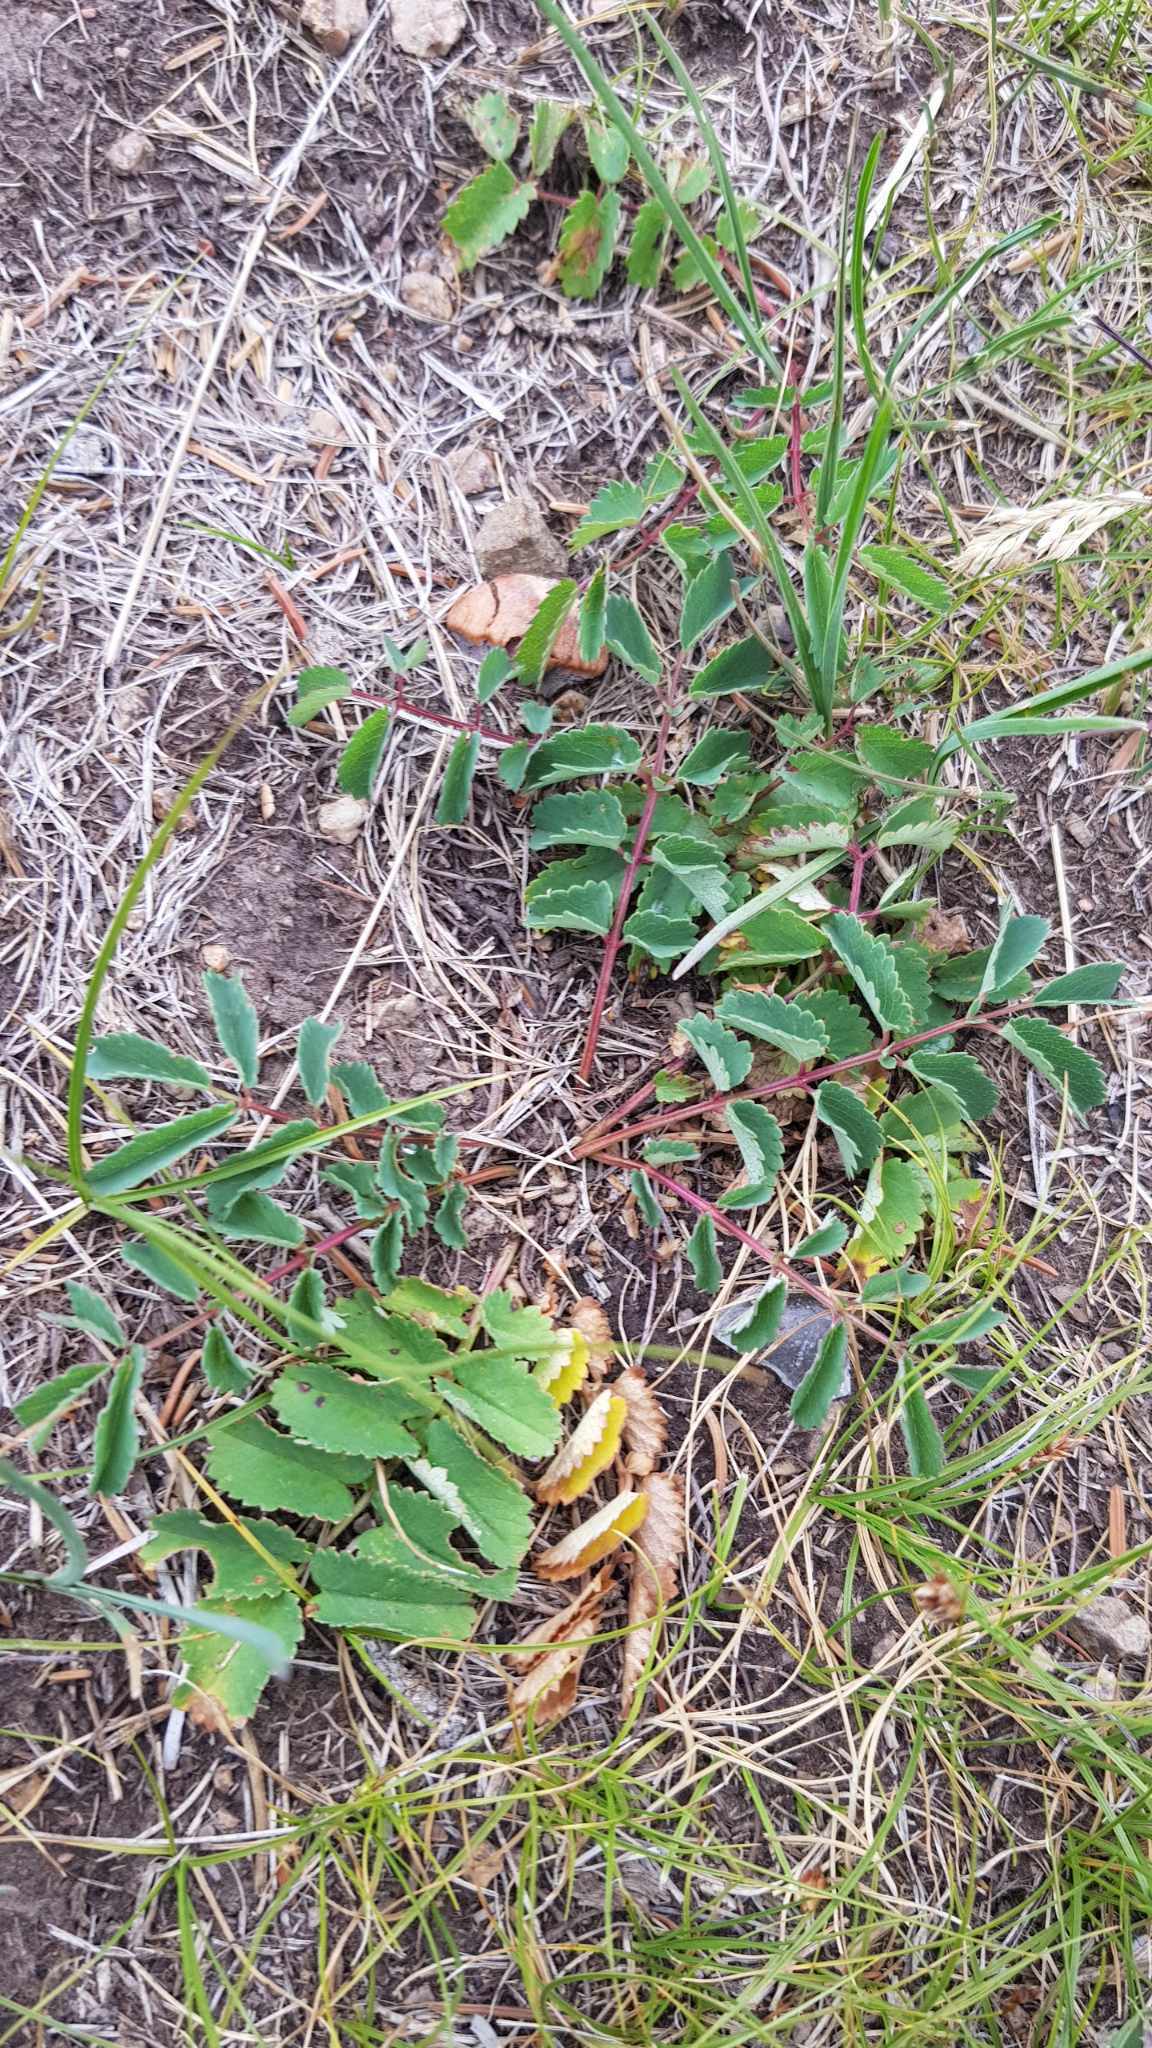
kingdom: Plantae
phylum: Tracheophyta
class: Magnoliopsida
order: Rosales
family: Rosaceae
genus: Sanguisorba
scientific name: Sanguisorba officinalis
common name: Great burnet
